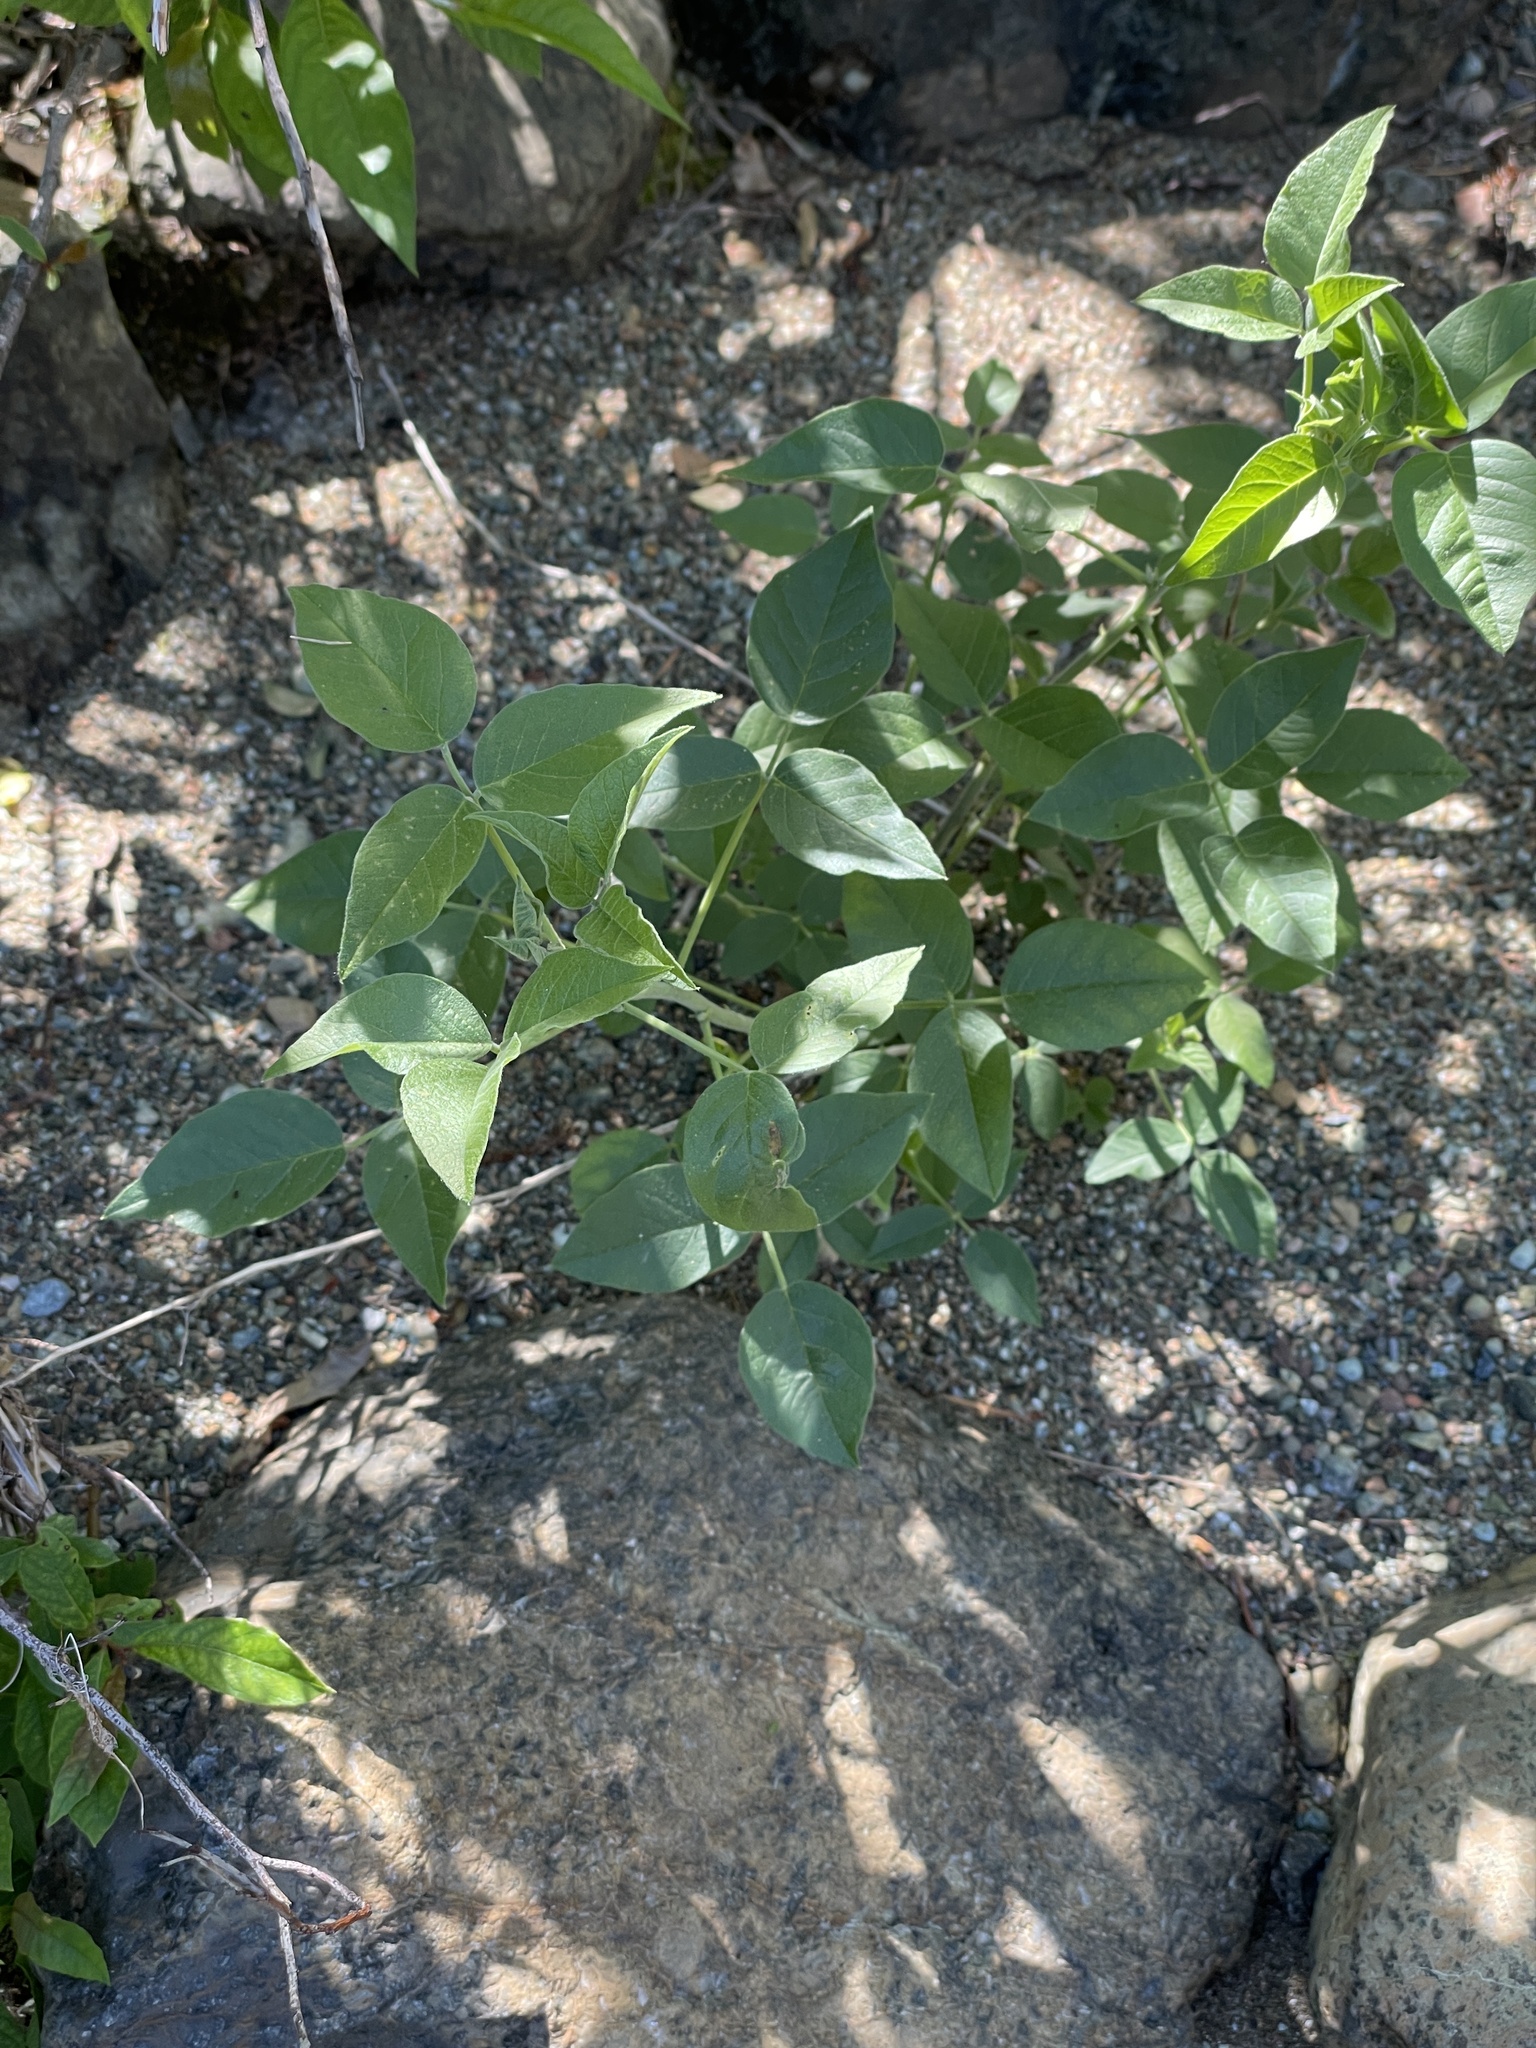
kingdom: Plantae
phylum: Tracheophyta
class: Magnoliopsida
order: Fabales
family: Fabaceae
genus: Hoita
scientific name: Hoita macrostachya
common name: Leatherroot
